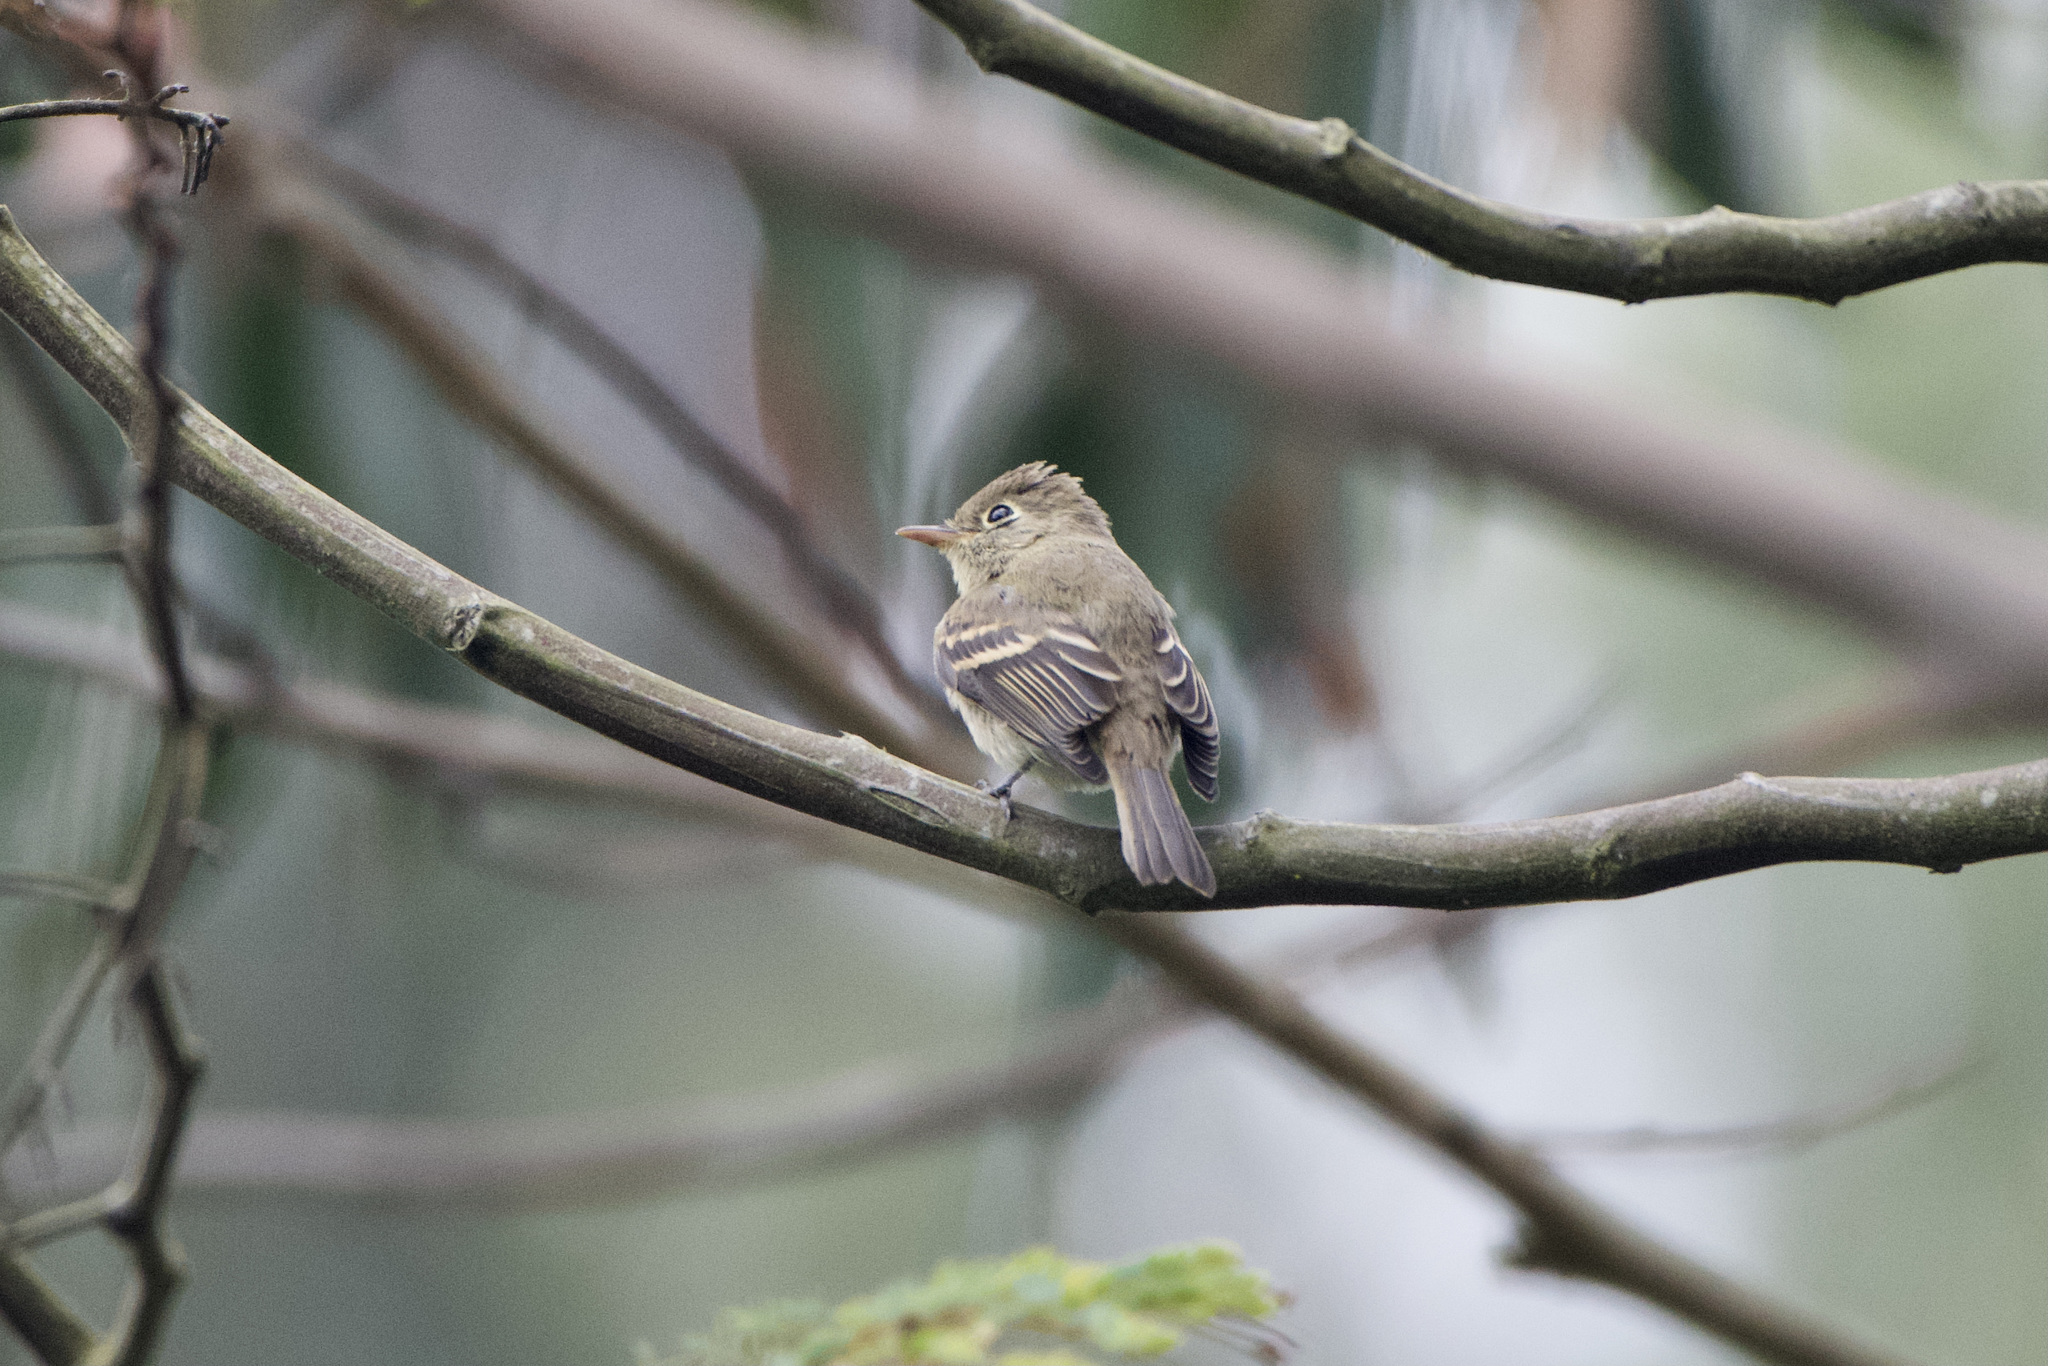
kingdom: Animalia
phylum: Chordata
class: Aves
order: Passeriformes
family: Tyrannidae
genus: Empidonax
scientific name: Empidonax difficilis
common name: Pacific-slope flycatcher
